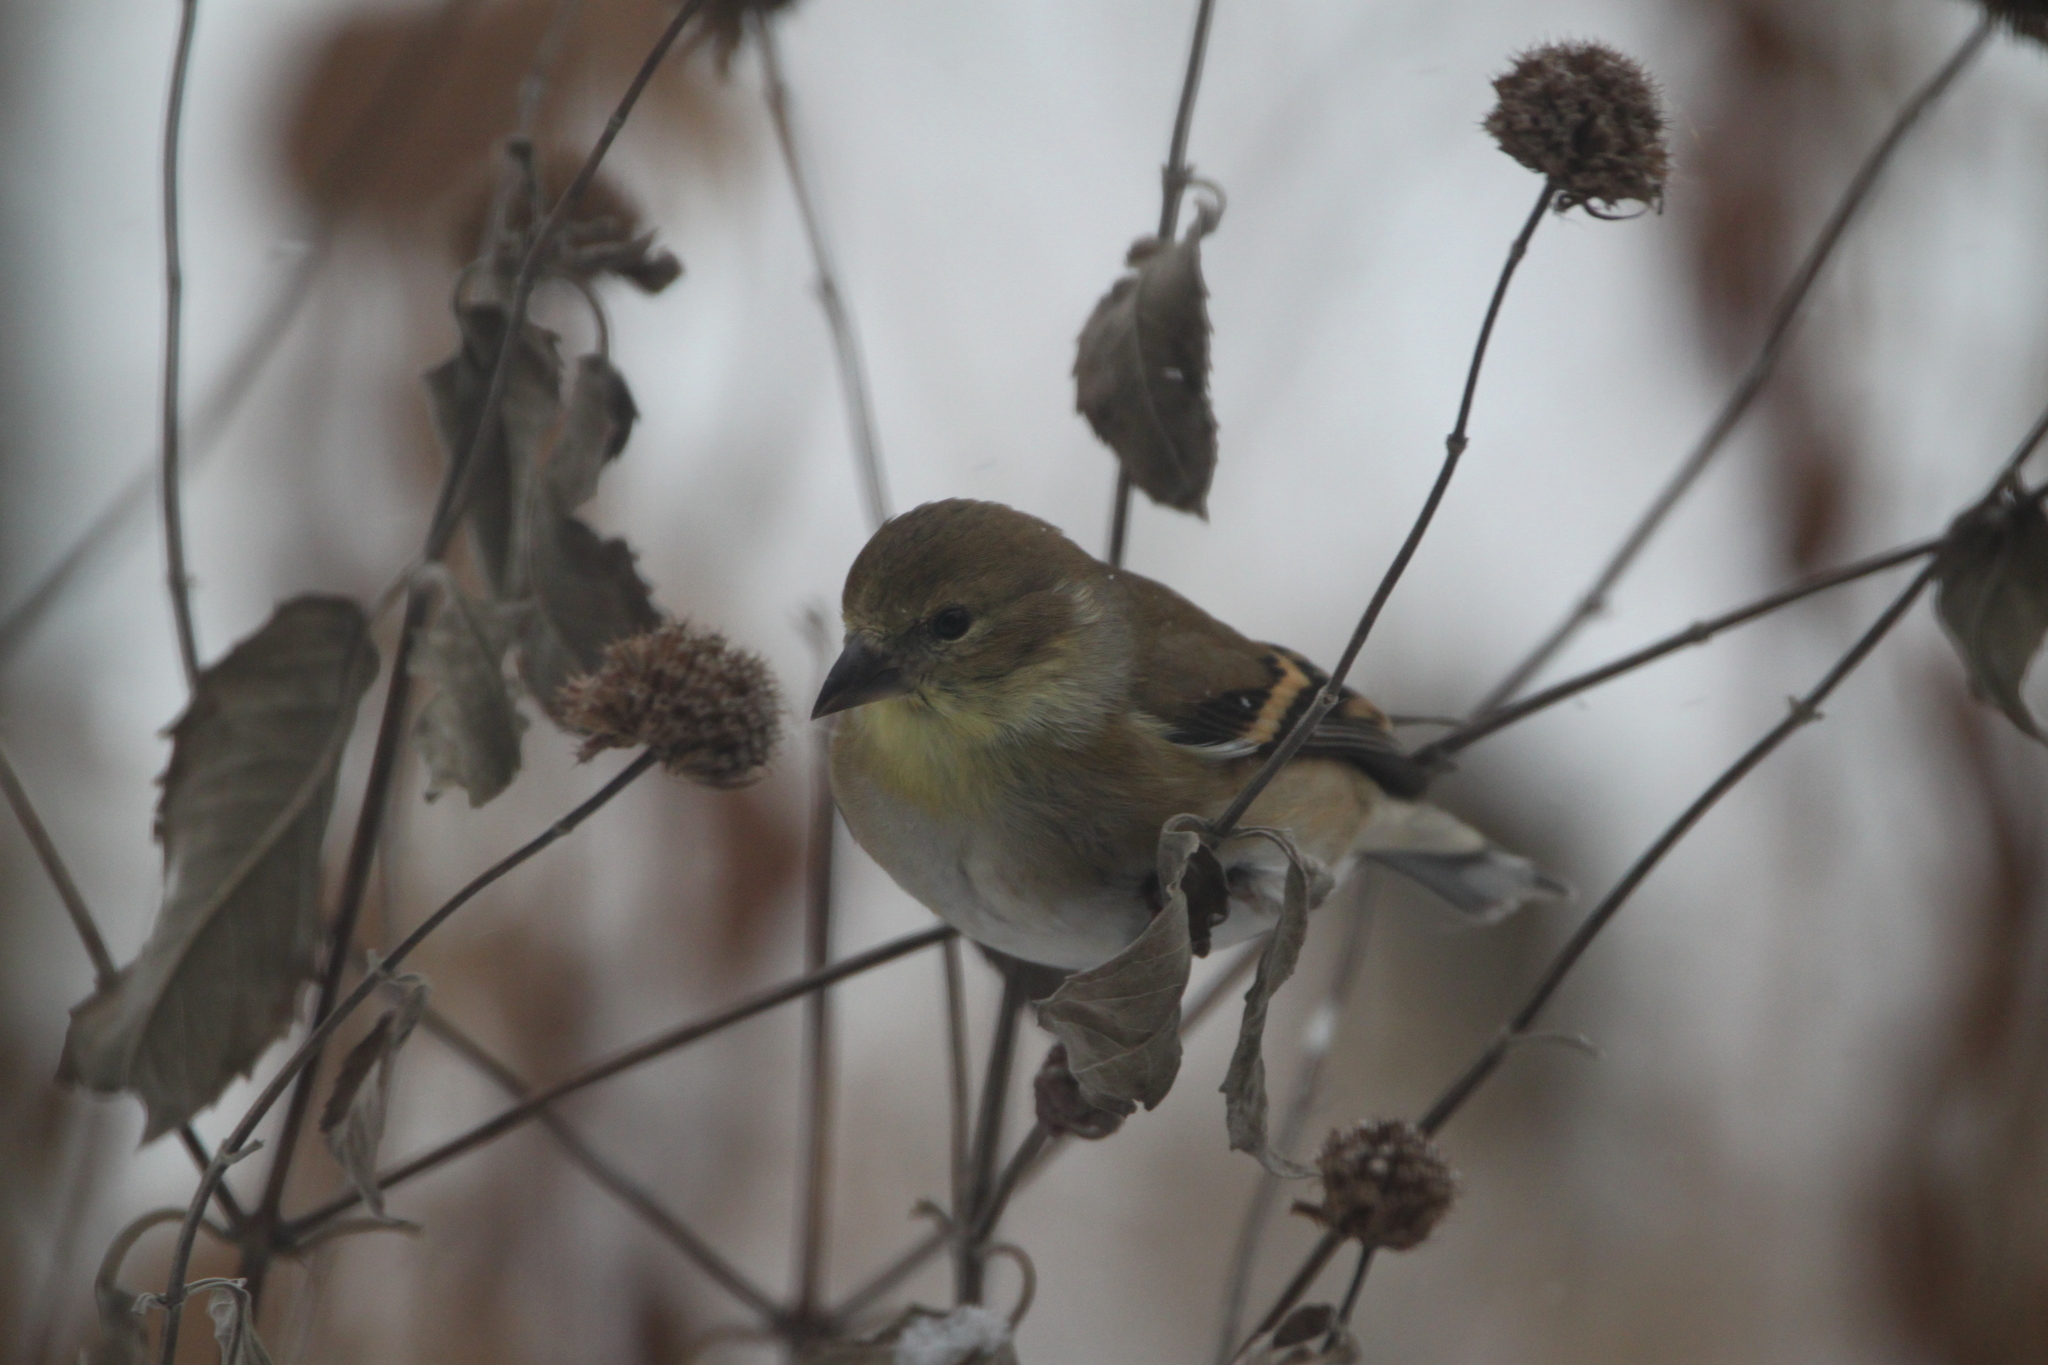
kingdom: Animalia
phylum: Chordata
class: Aves
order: Passeriformes
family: Fringillidae
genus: Spinus
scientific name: Spinus tristis
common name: American goldfinch
